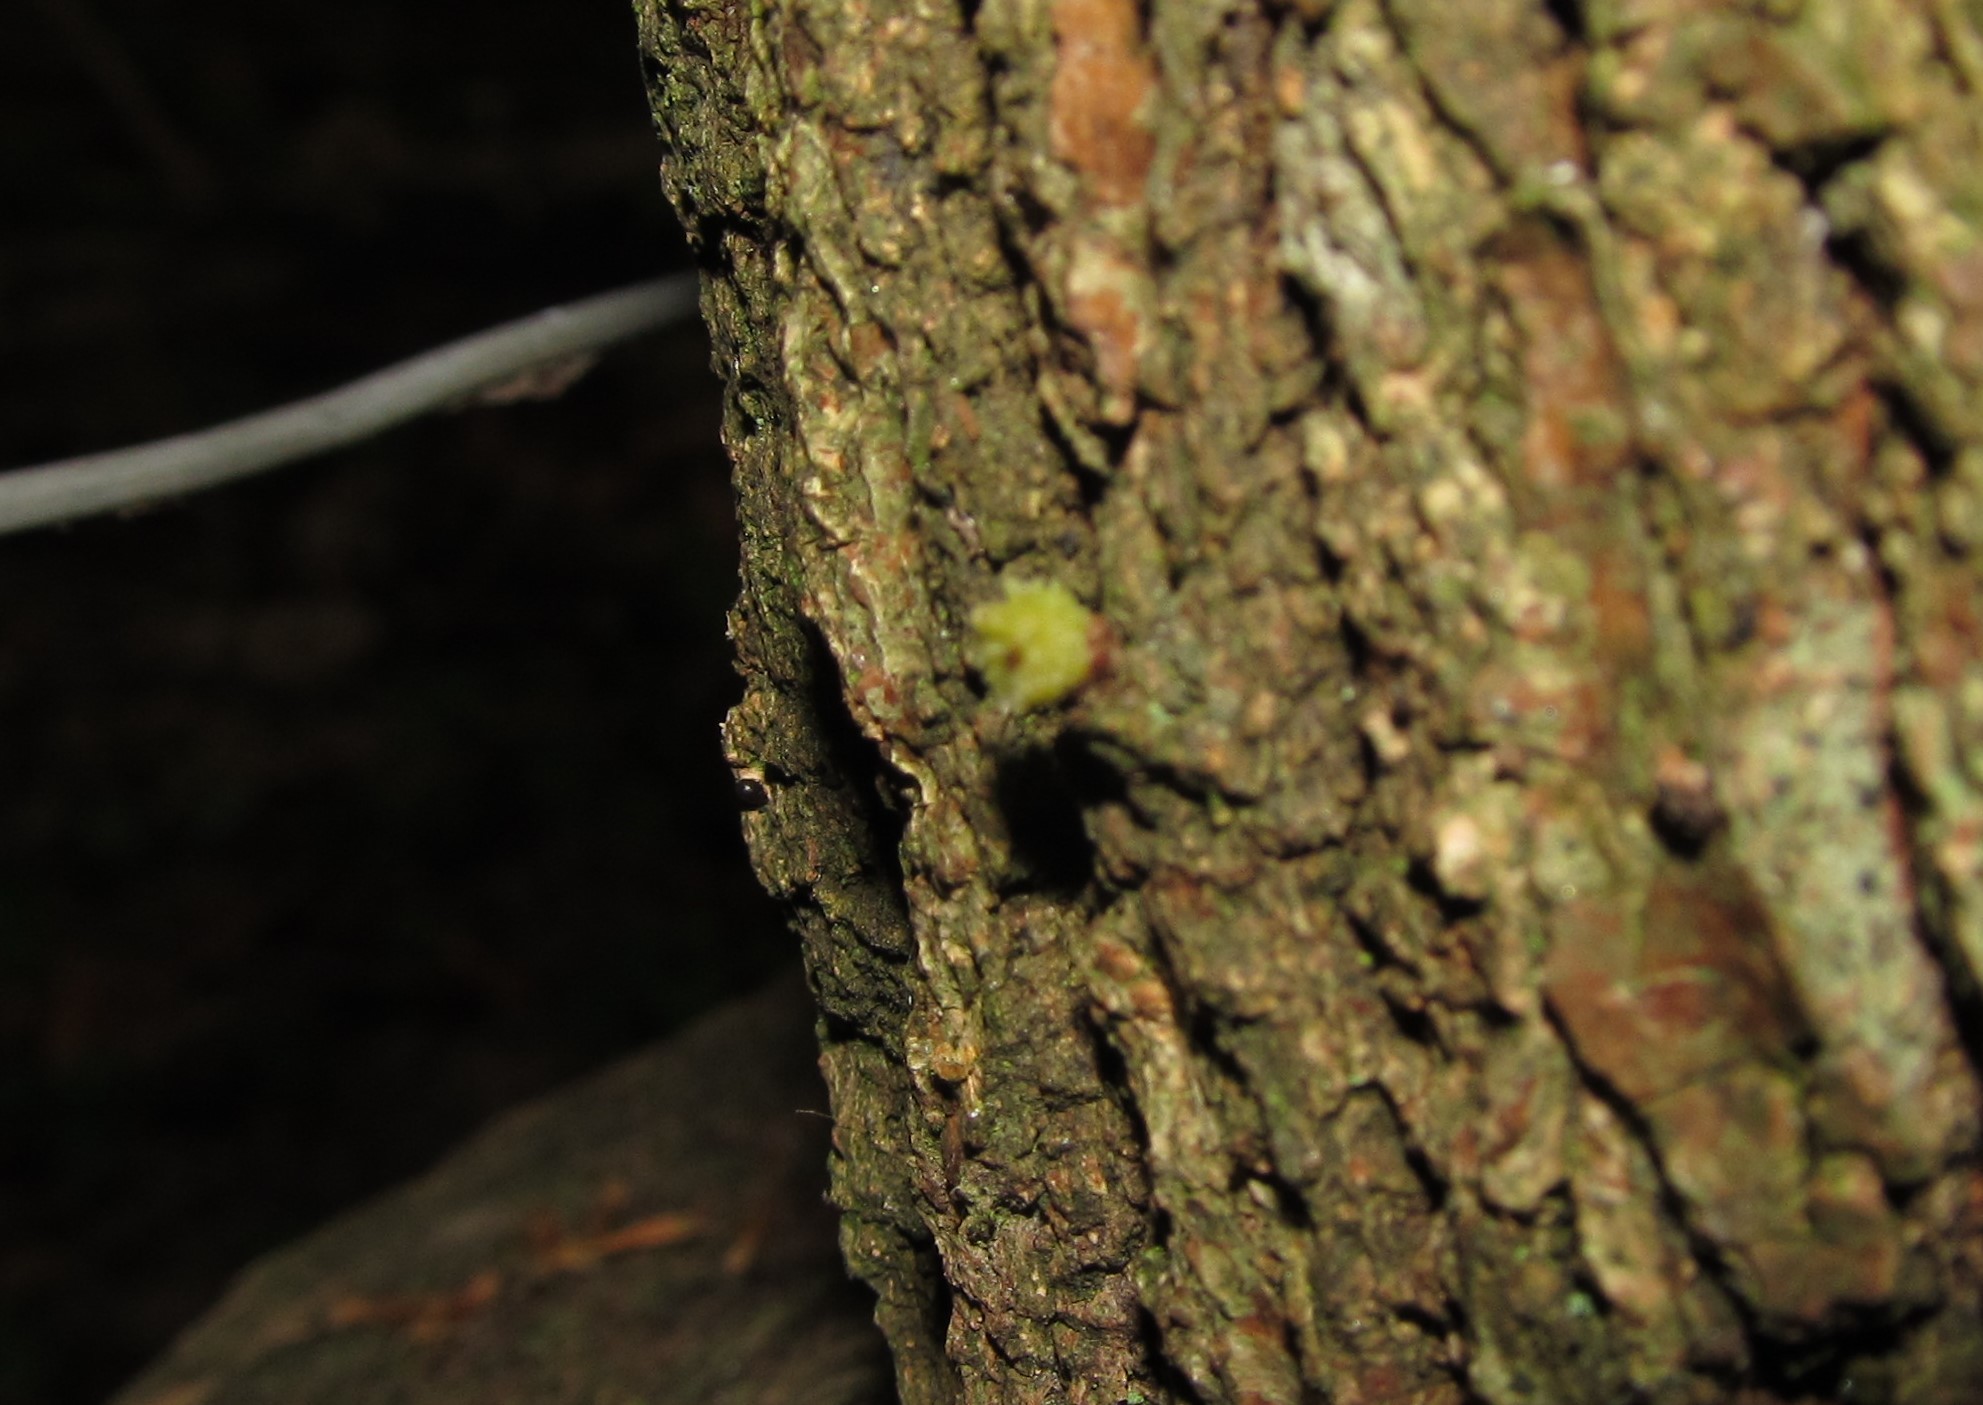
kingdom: Animalia
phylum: Arthropoda
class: Insecta
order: Hymenoptera
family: Cynipidae
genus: Andricus
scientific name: Andricus gemmeus
